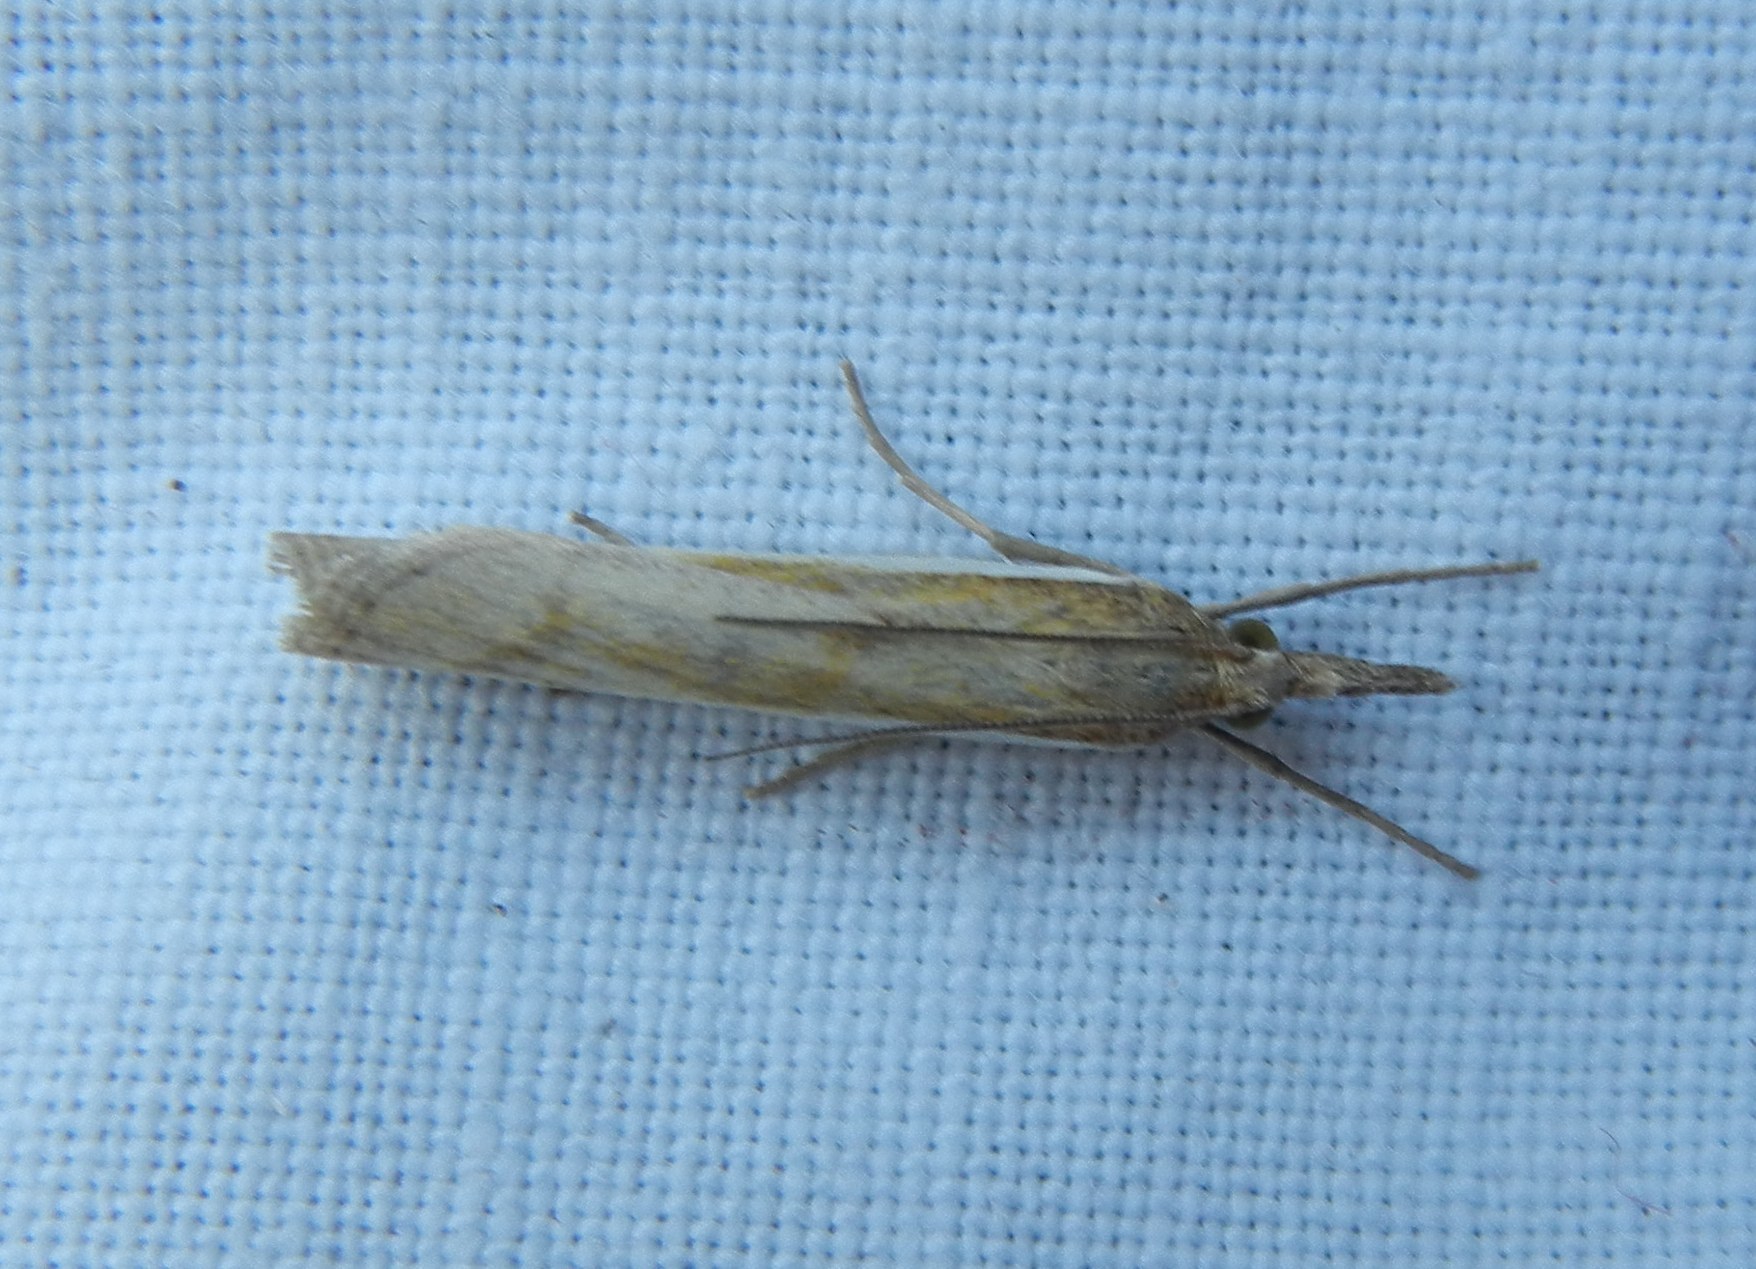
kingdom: Animalia
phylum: Arthropoda
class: Insecta
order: Lepidoptera
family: Crambidae
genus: Agriphila
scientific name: Agriphila tristellus
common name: Common grass-veneer
